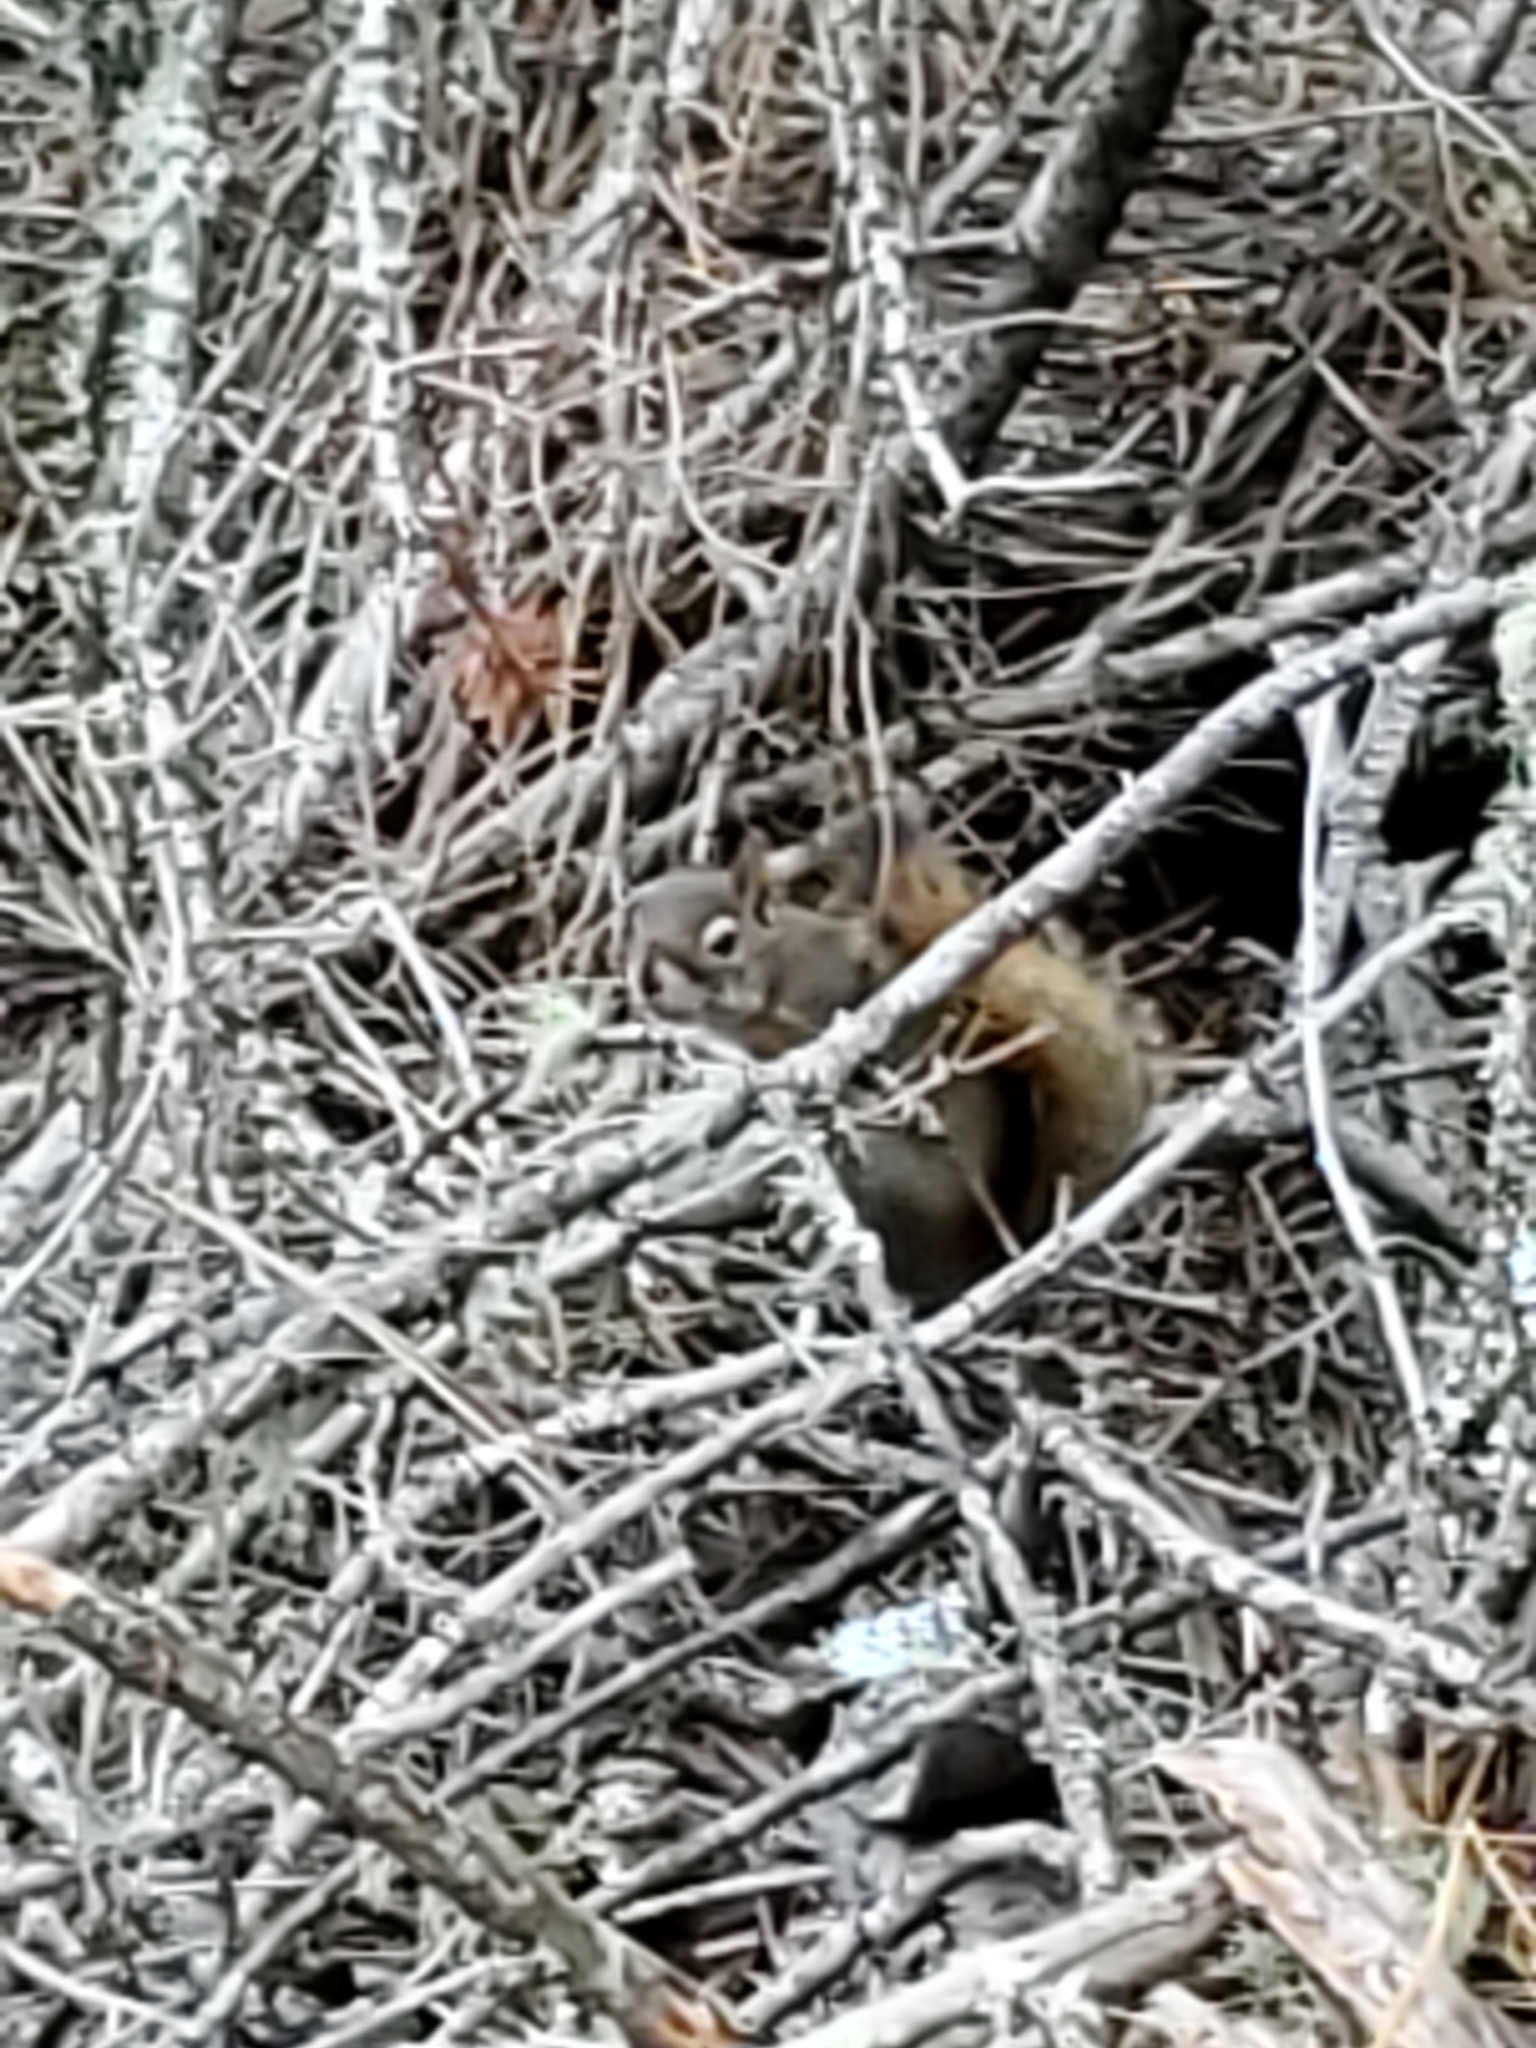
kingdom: Animalia
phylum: Chordata
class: Mammalia
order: Rodentia
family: Sciuridae
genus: Tamiasciurus
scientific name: Tamiasciurus hudsonicus
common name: Red squirrel
